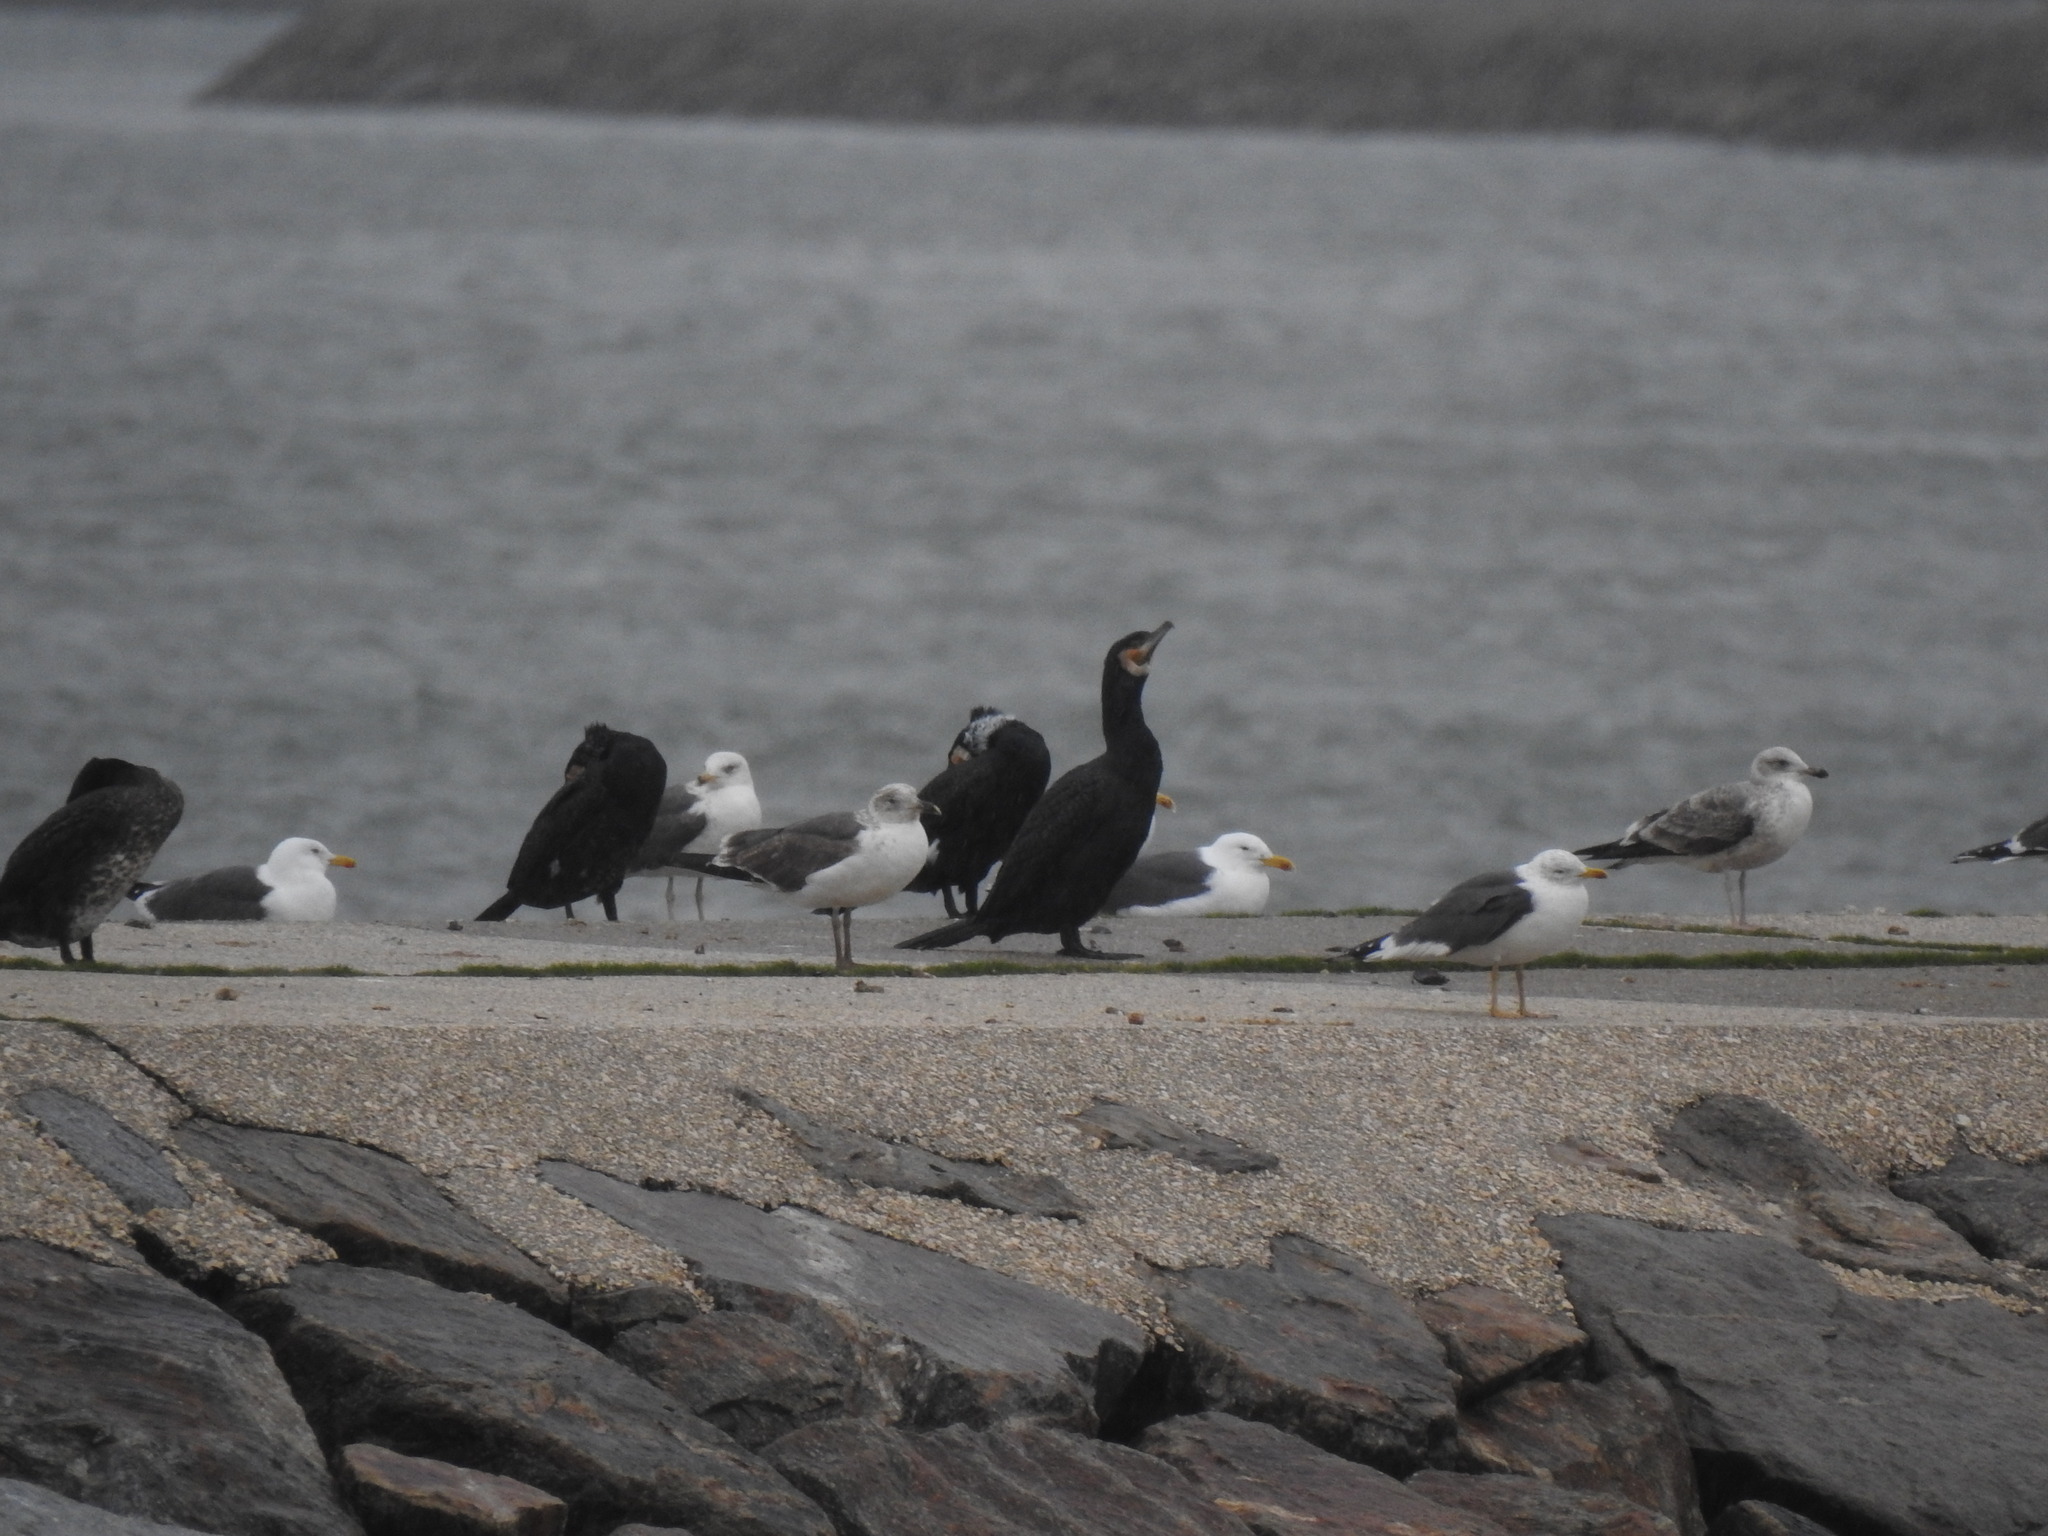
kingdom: Animalia
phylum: Chordata
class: Aves
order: Suliformes
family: Phalacrocoracidae
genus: Phalacrocorax
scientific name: Phalacrocorax carbo
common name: Great cormorant
